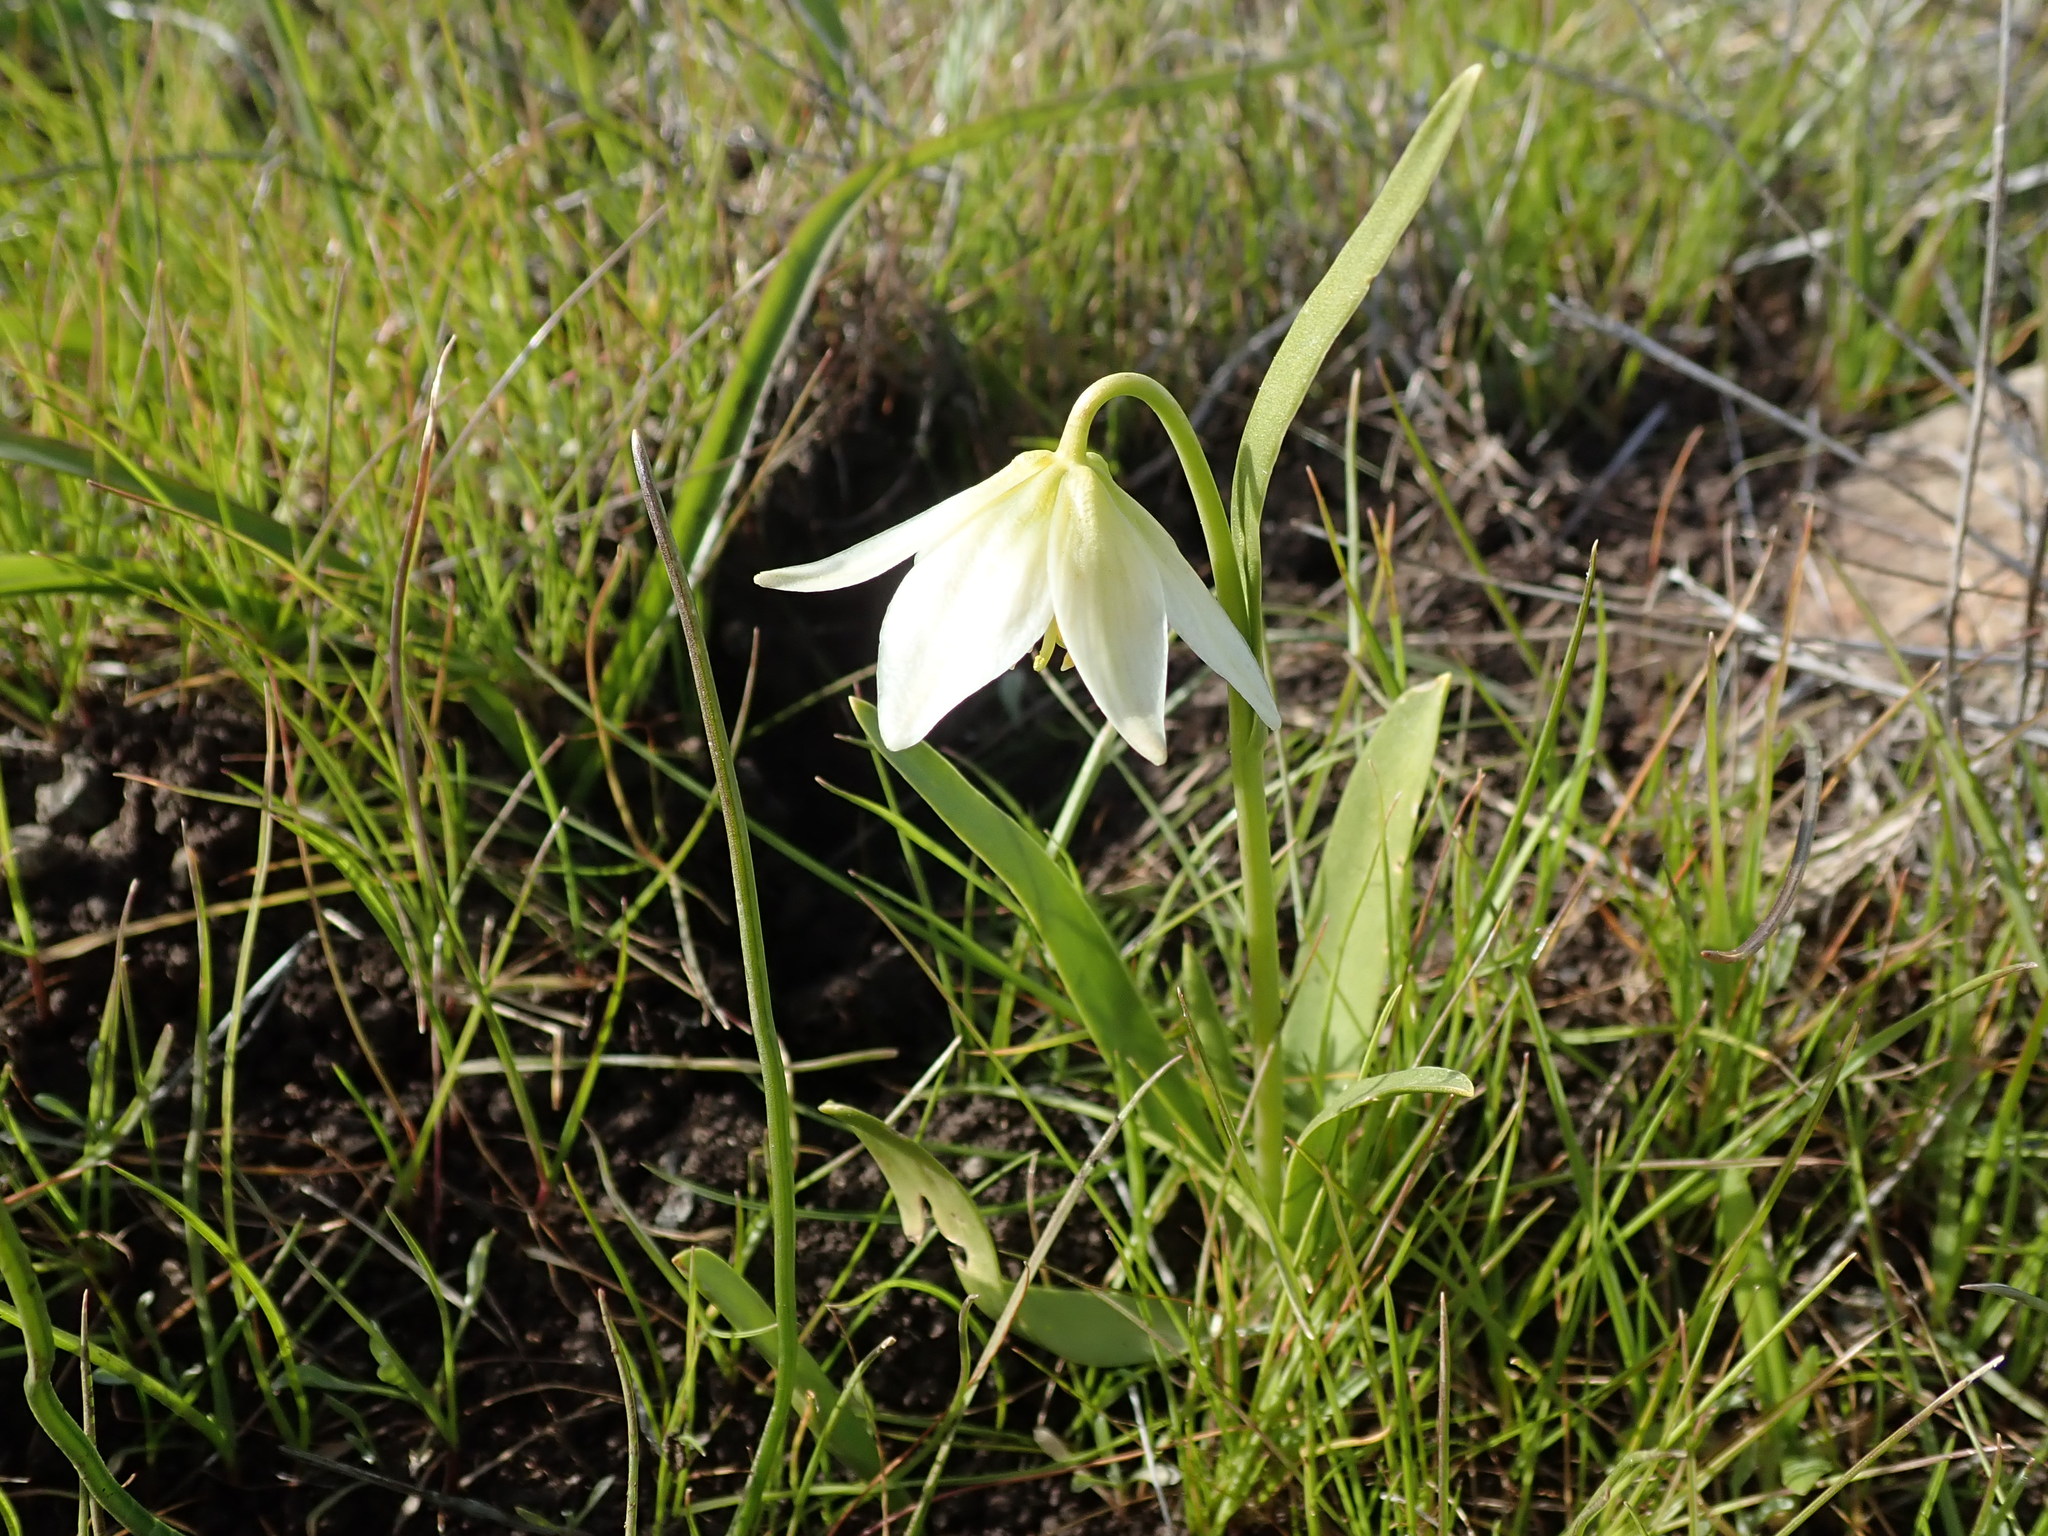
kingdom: Plantae
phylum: Tracheophyta
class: Liliopsida
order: Liliales
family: Liliaceae
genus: Fritillaria
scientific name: Fritillaria liliacea
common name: Fragrant fritillary
